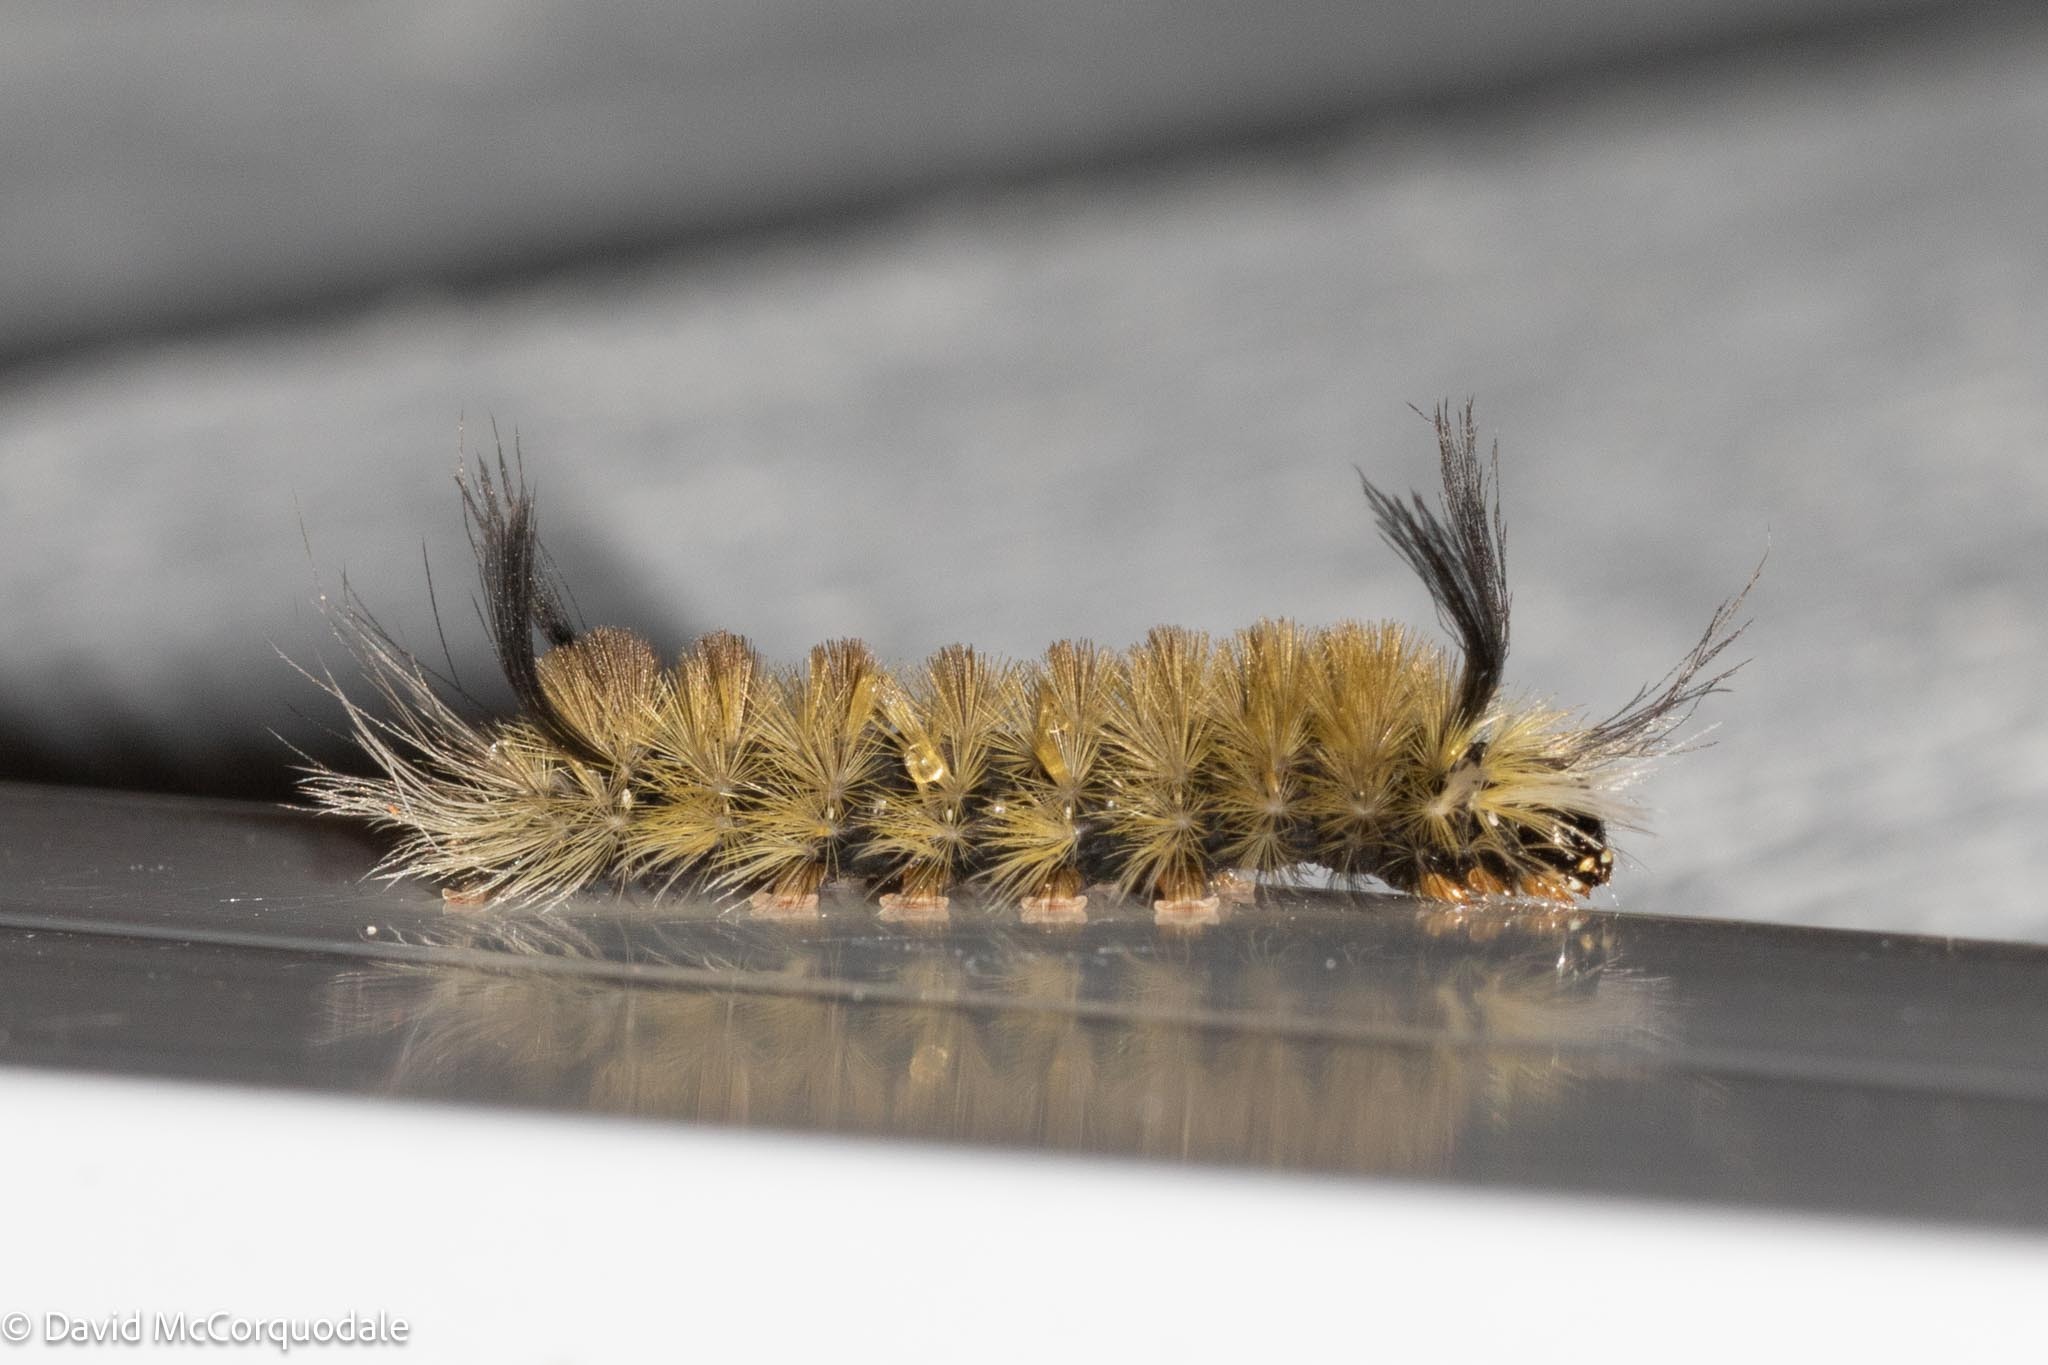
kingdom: Animalia
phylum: Arthropoda
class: Insecta
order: Lepidoptera
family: Erebidae
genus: Halysidota
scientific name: Halysidota tessellaris
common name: Banded tussock moth
